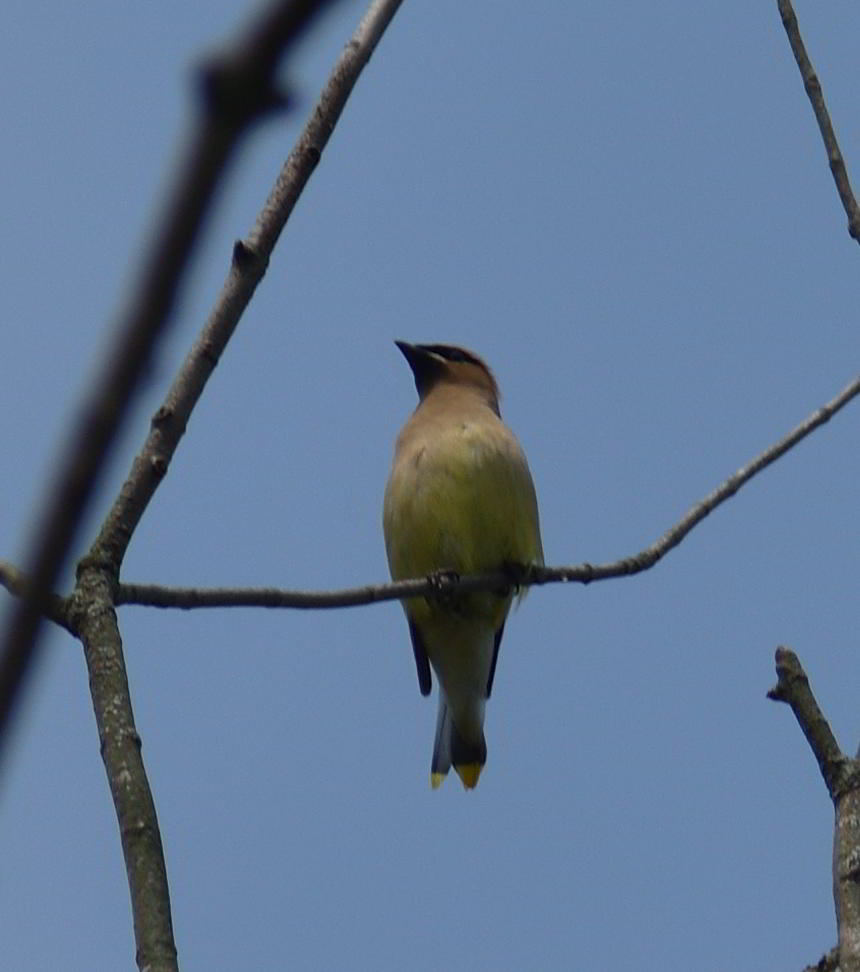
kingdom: Animalia
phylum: Chordata
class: Aves
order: Passeriformes
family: Bombycillidae
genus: Bombycilla
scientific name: Bombycilla cedrorum
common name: Cedar waxwing
